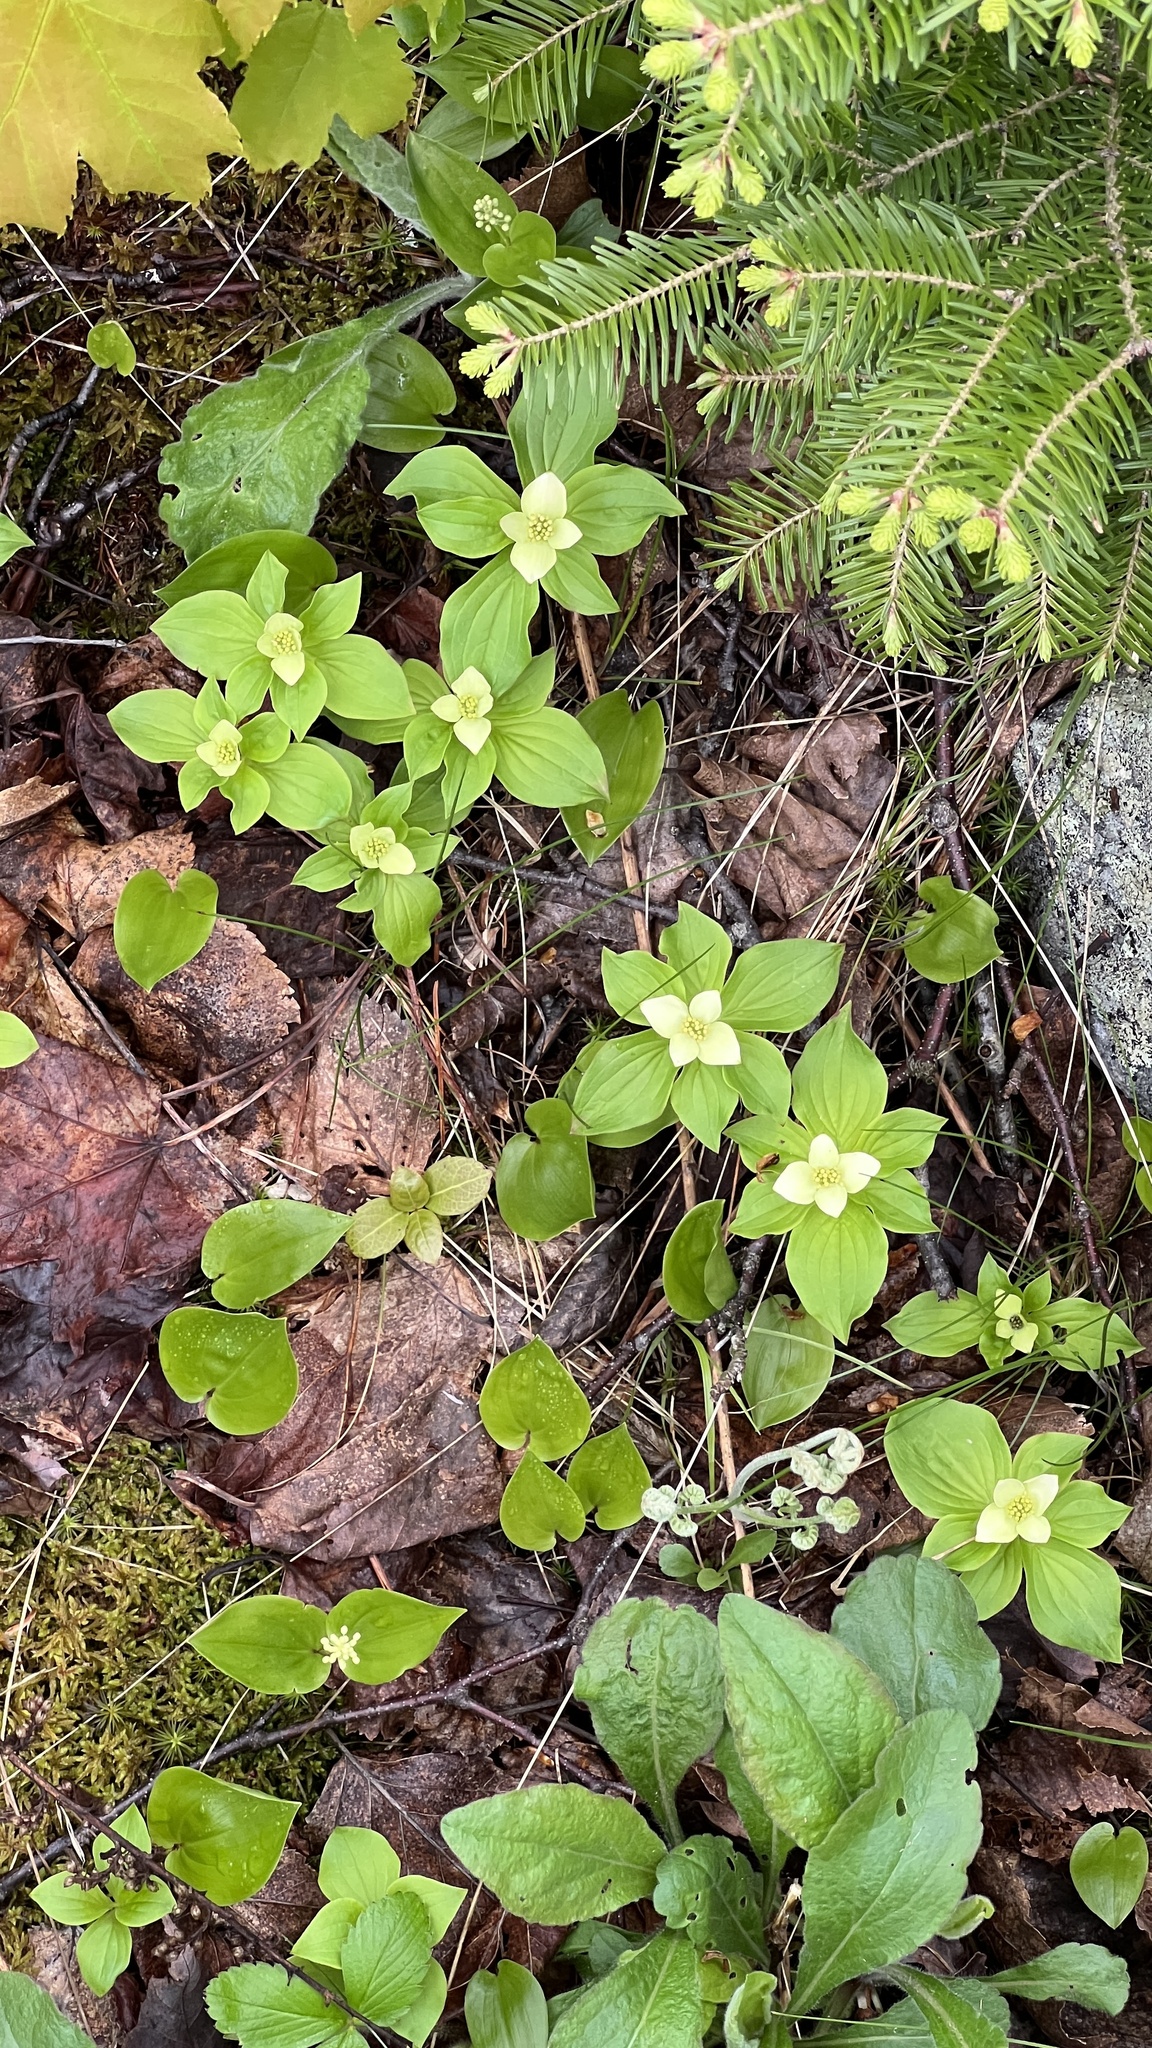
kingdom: Plantae
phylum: Tracheophyta
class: Magnoliopsida
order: Cornales
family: Cornaceae
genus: Cornus
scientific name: Cornus canadensis
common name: Creeping dogwood
